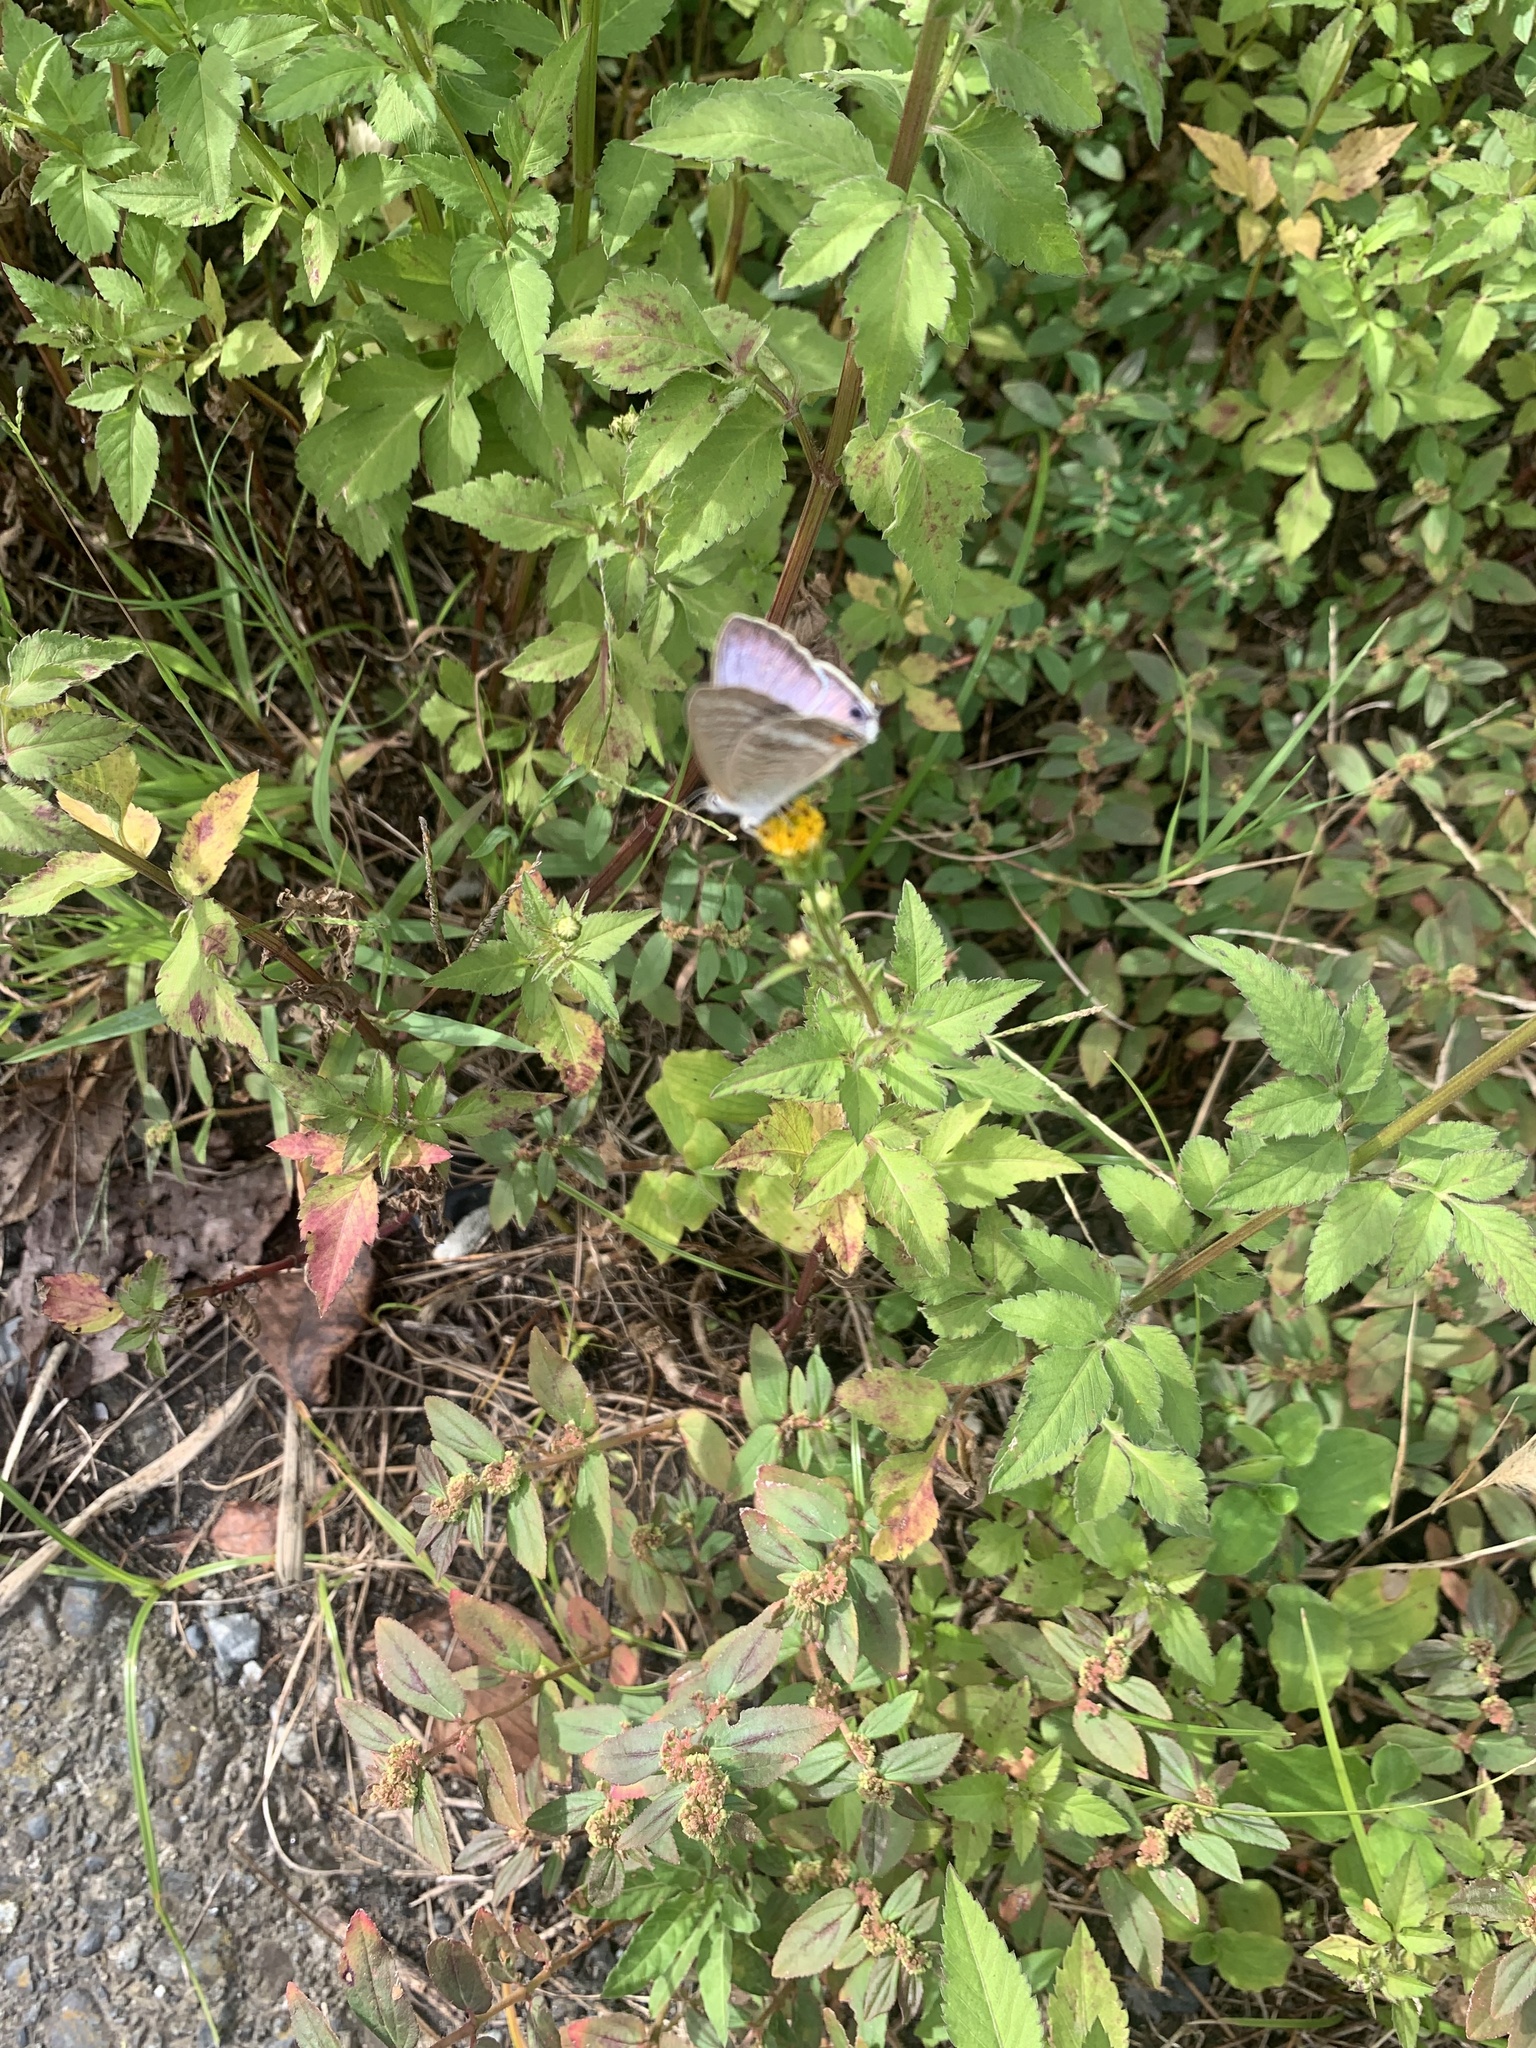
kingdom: Animalia
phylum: Arthropoda
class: Insecta
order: Lepidoptera
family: Lycaenidae
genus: Lampides
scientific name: Lampides boeticus
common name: Long-tailed blue
